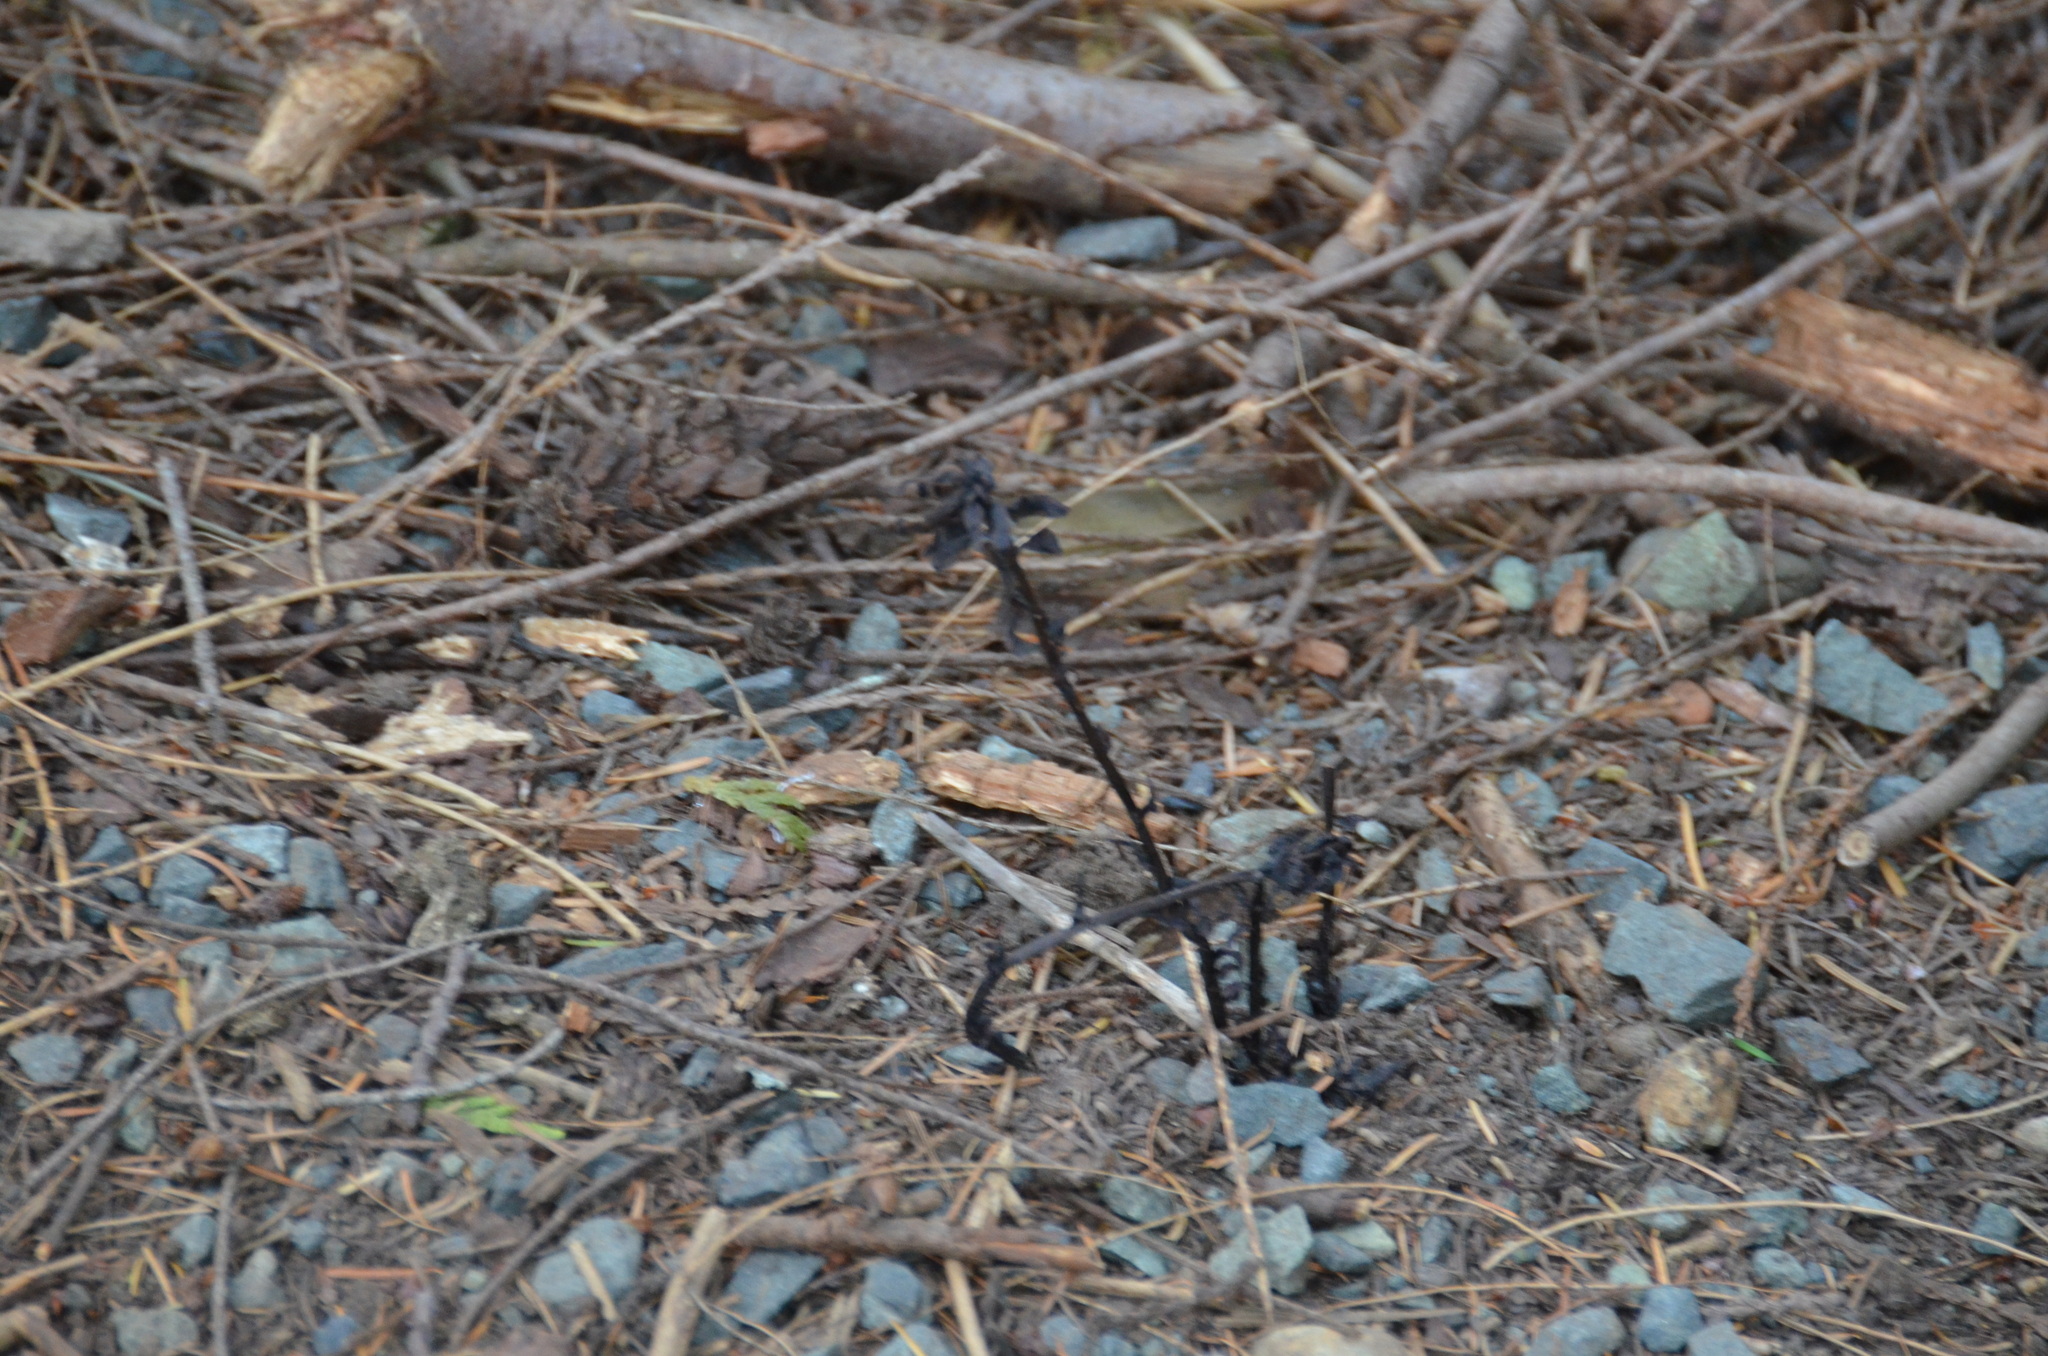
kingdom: Plantae
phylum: Tracheophyta
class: Magnoliopsida
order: Ericales
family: Ericaceae
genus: Monotropa
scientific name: Monotropa uniflora
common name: Convulsion root
